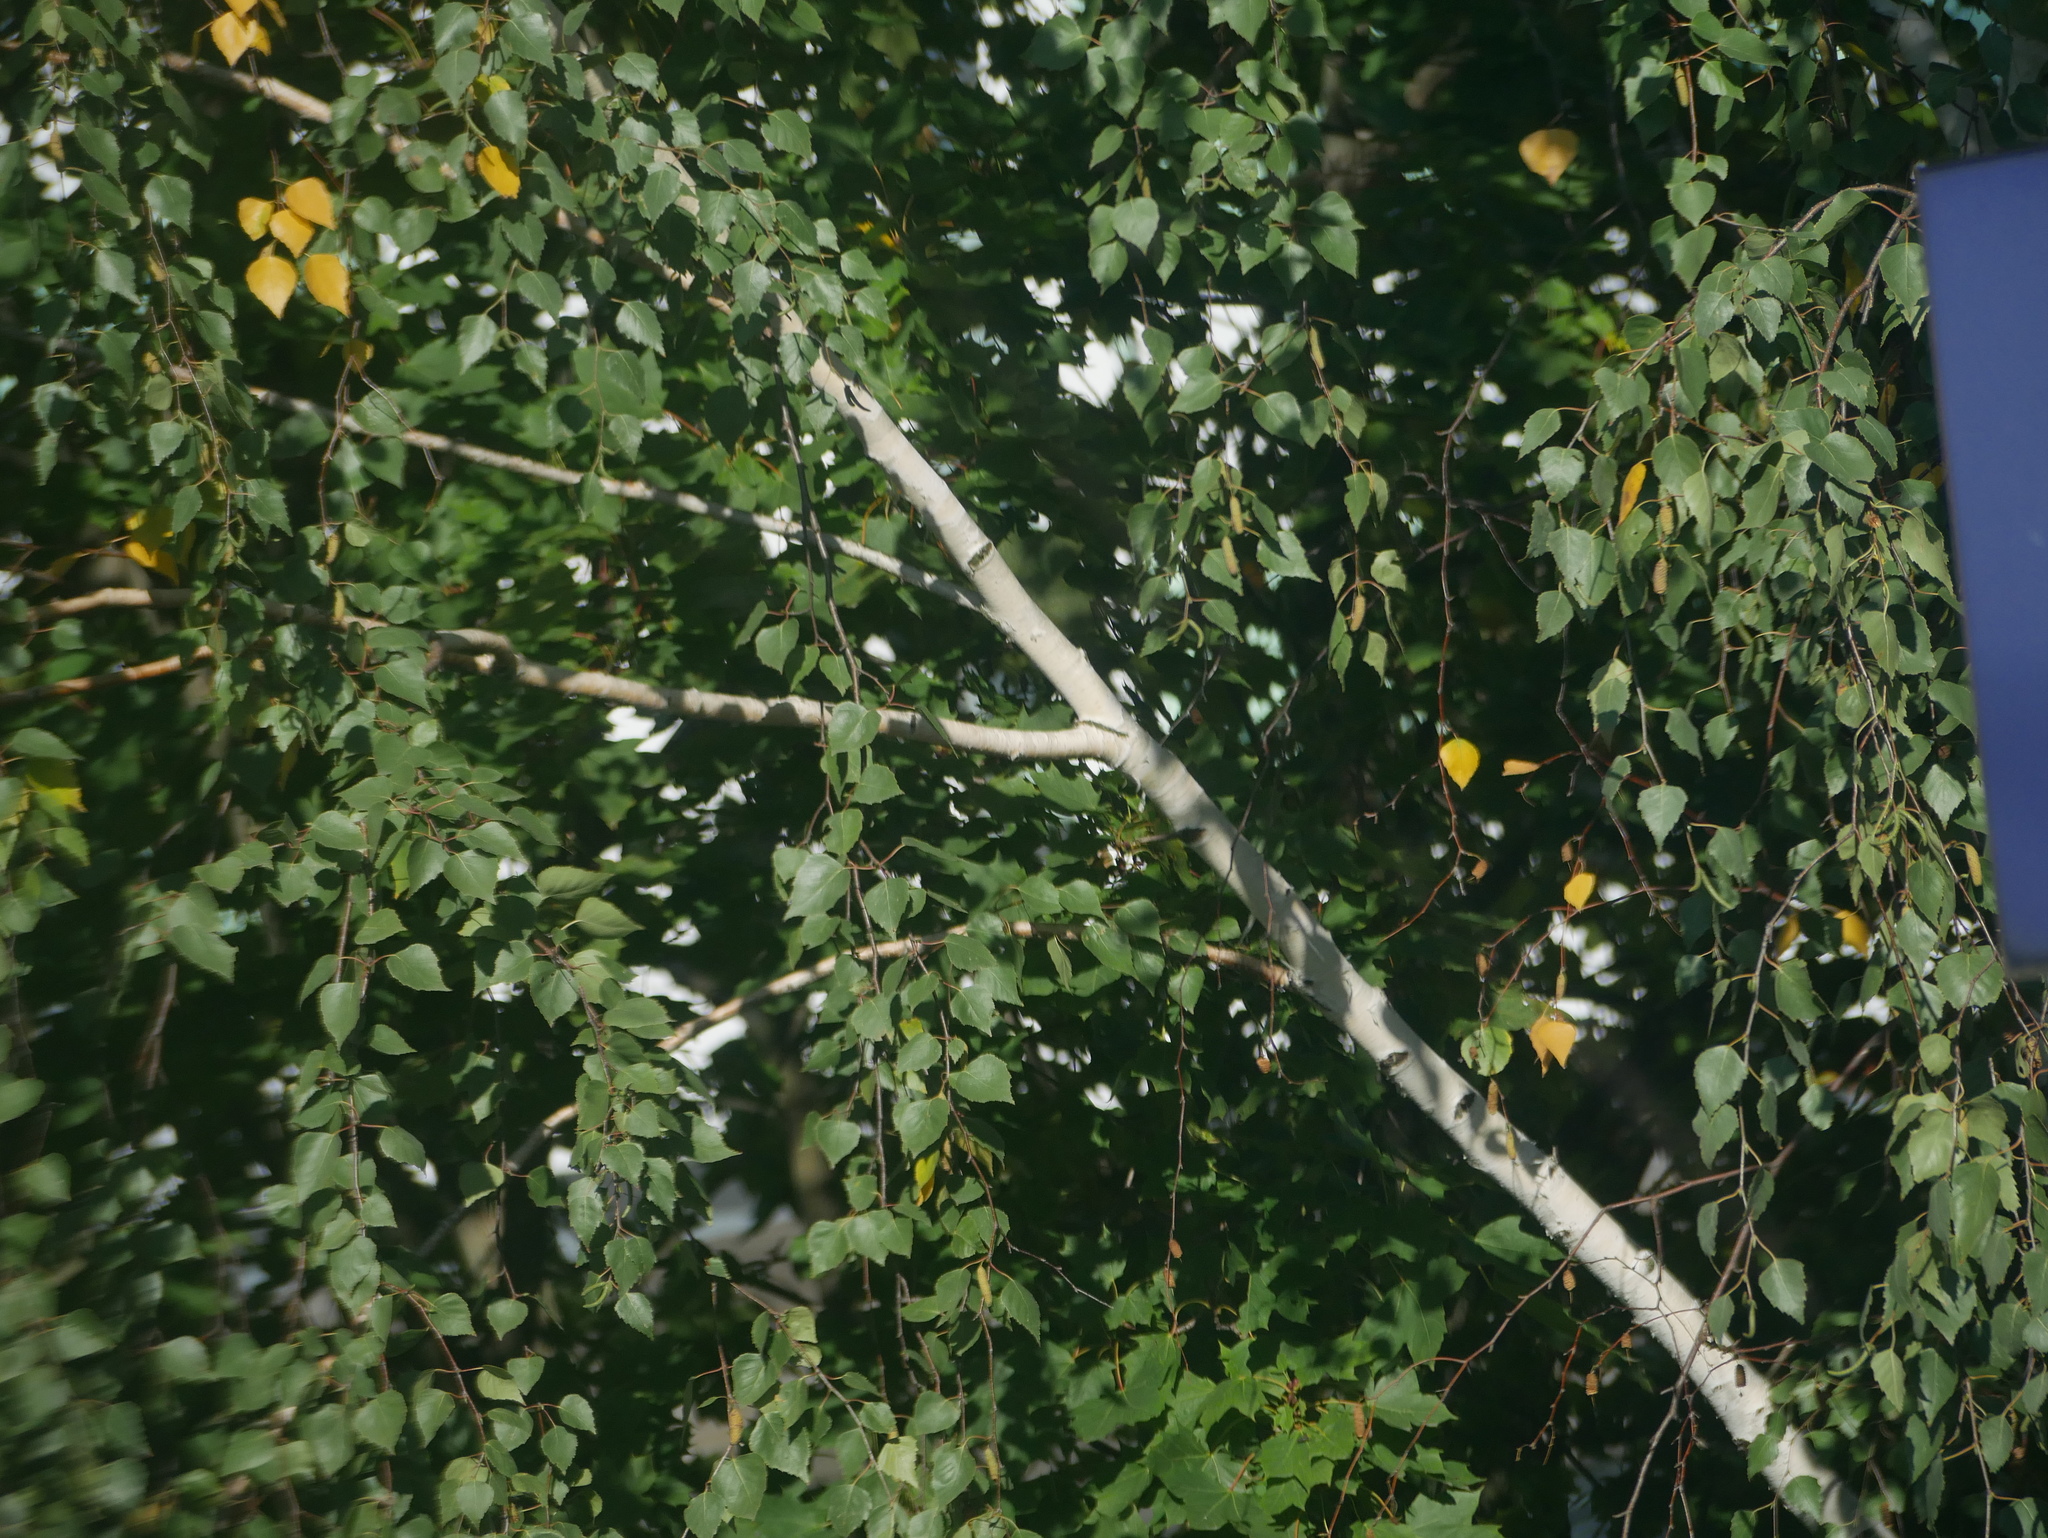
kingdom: Plantae
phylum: Tracheophyta
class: Magnoliopsida
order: Fagales
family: Betulaceae
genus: Betula
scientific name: Betula pendula
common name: Silver birch
